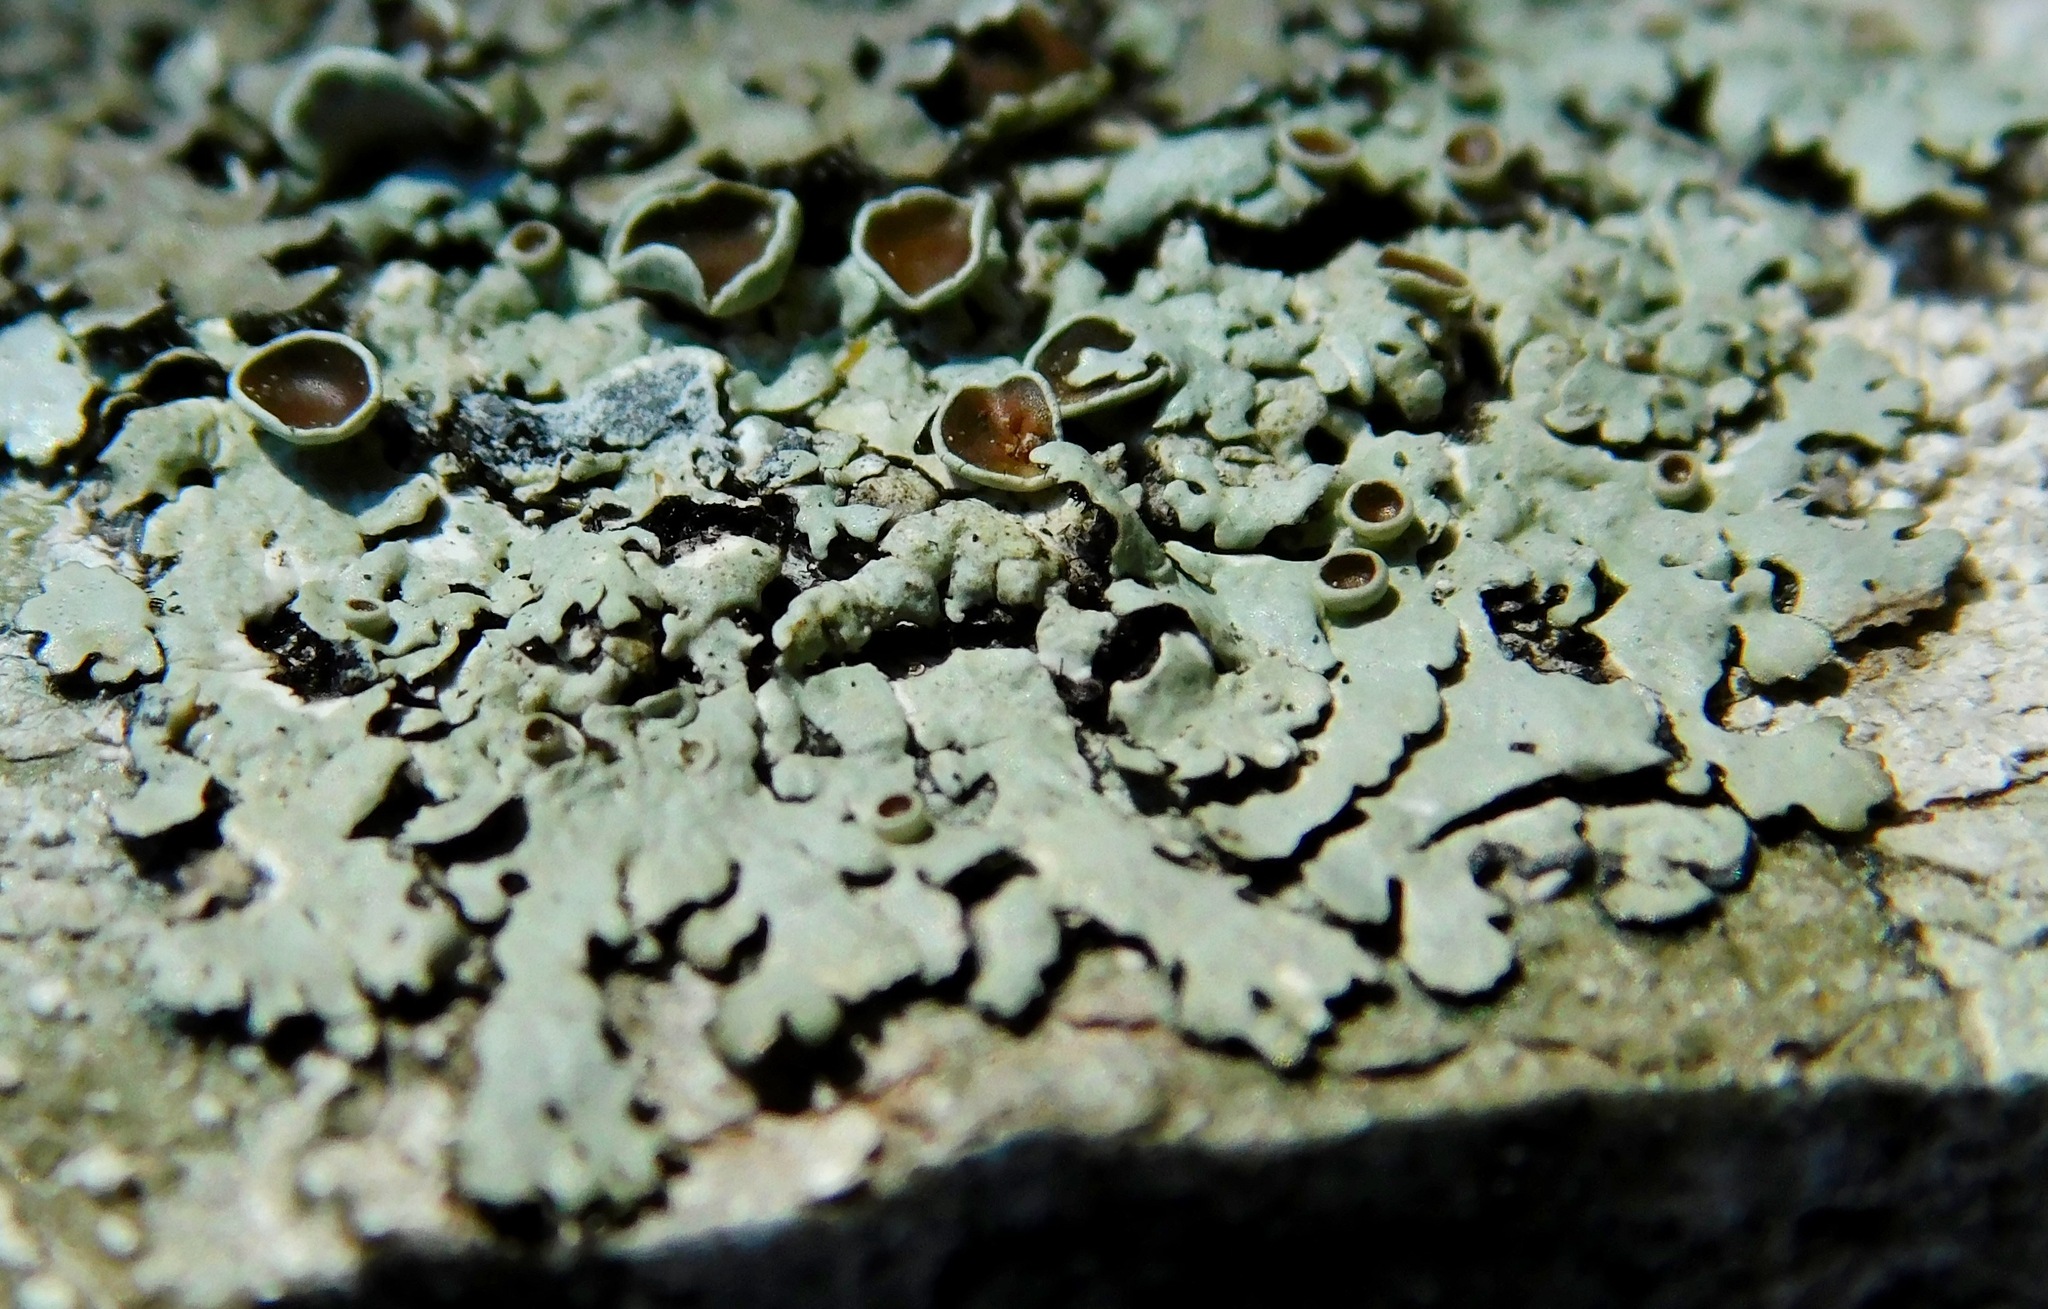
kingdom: Fungi
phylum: Ascomycota
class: Lecanoromycetes
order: Caliciales
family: Physciaceae
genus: Physcia
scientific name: Physcia stellaris
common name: Star rosette lichen
